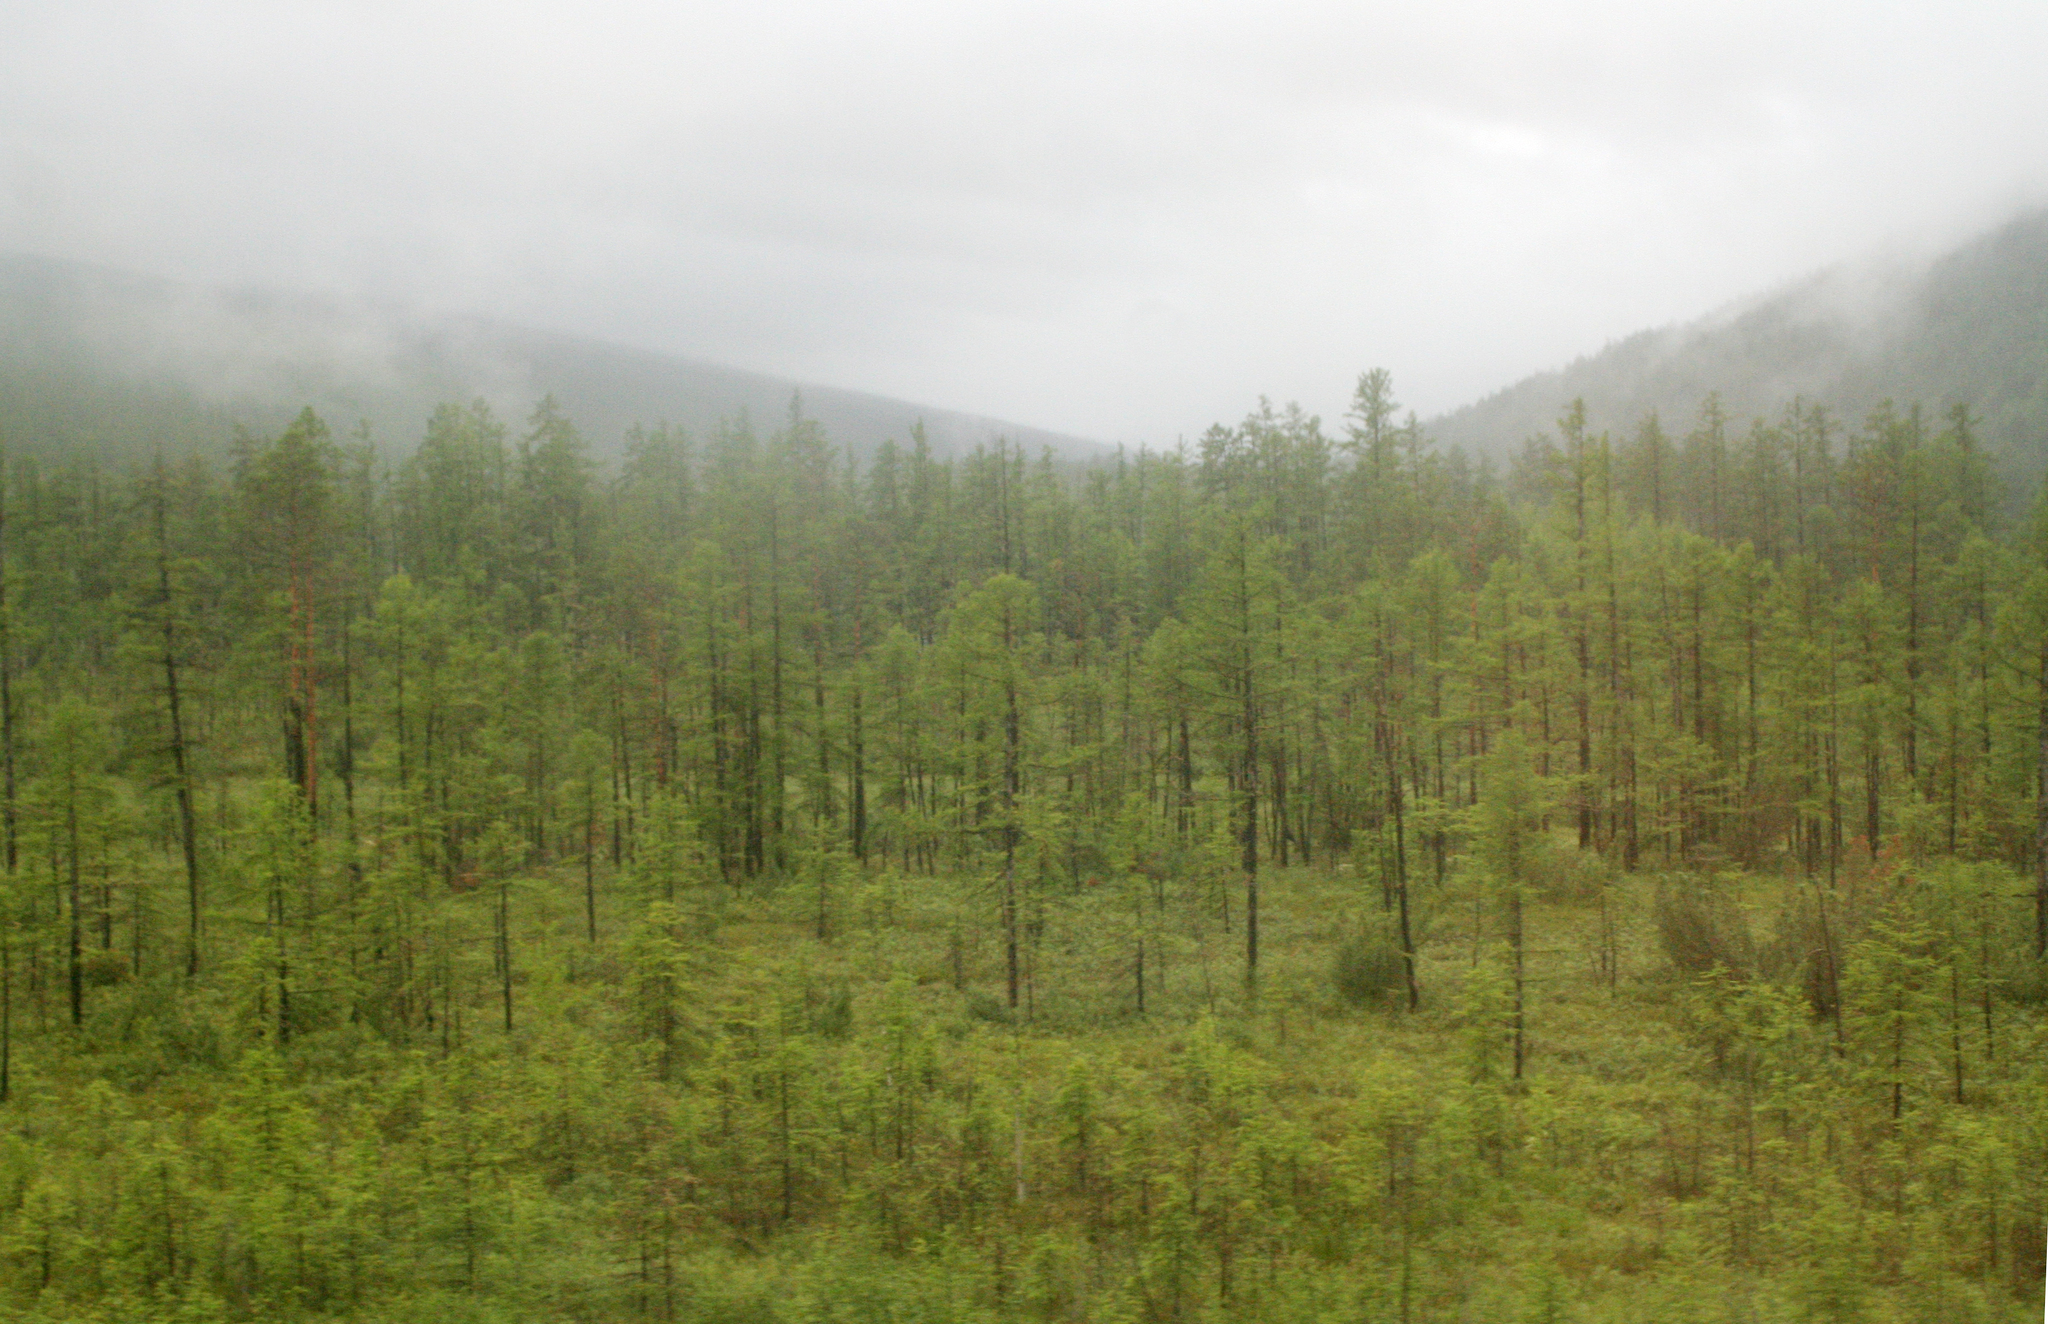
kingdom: Plantae
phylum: Tracheophyta
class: Pinopsida
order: Pinales
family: Pinaceae
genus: Larix
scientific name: Larix gmelinii
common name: Dahurian larch
